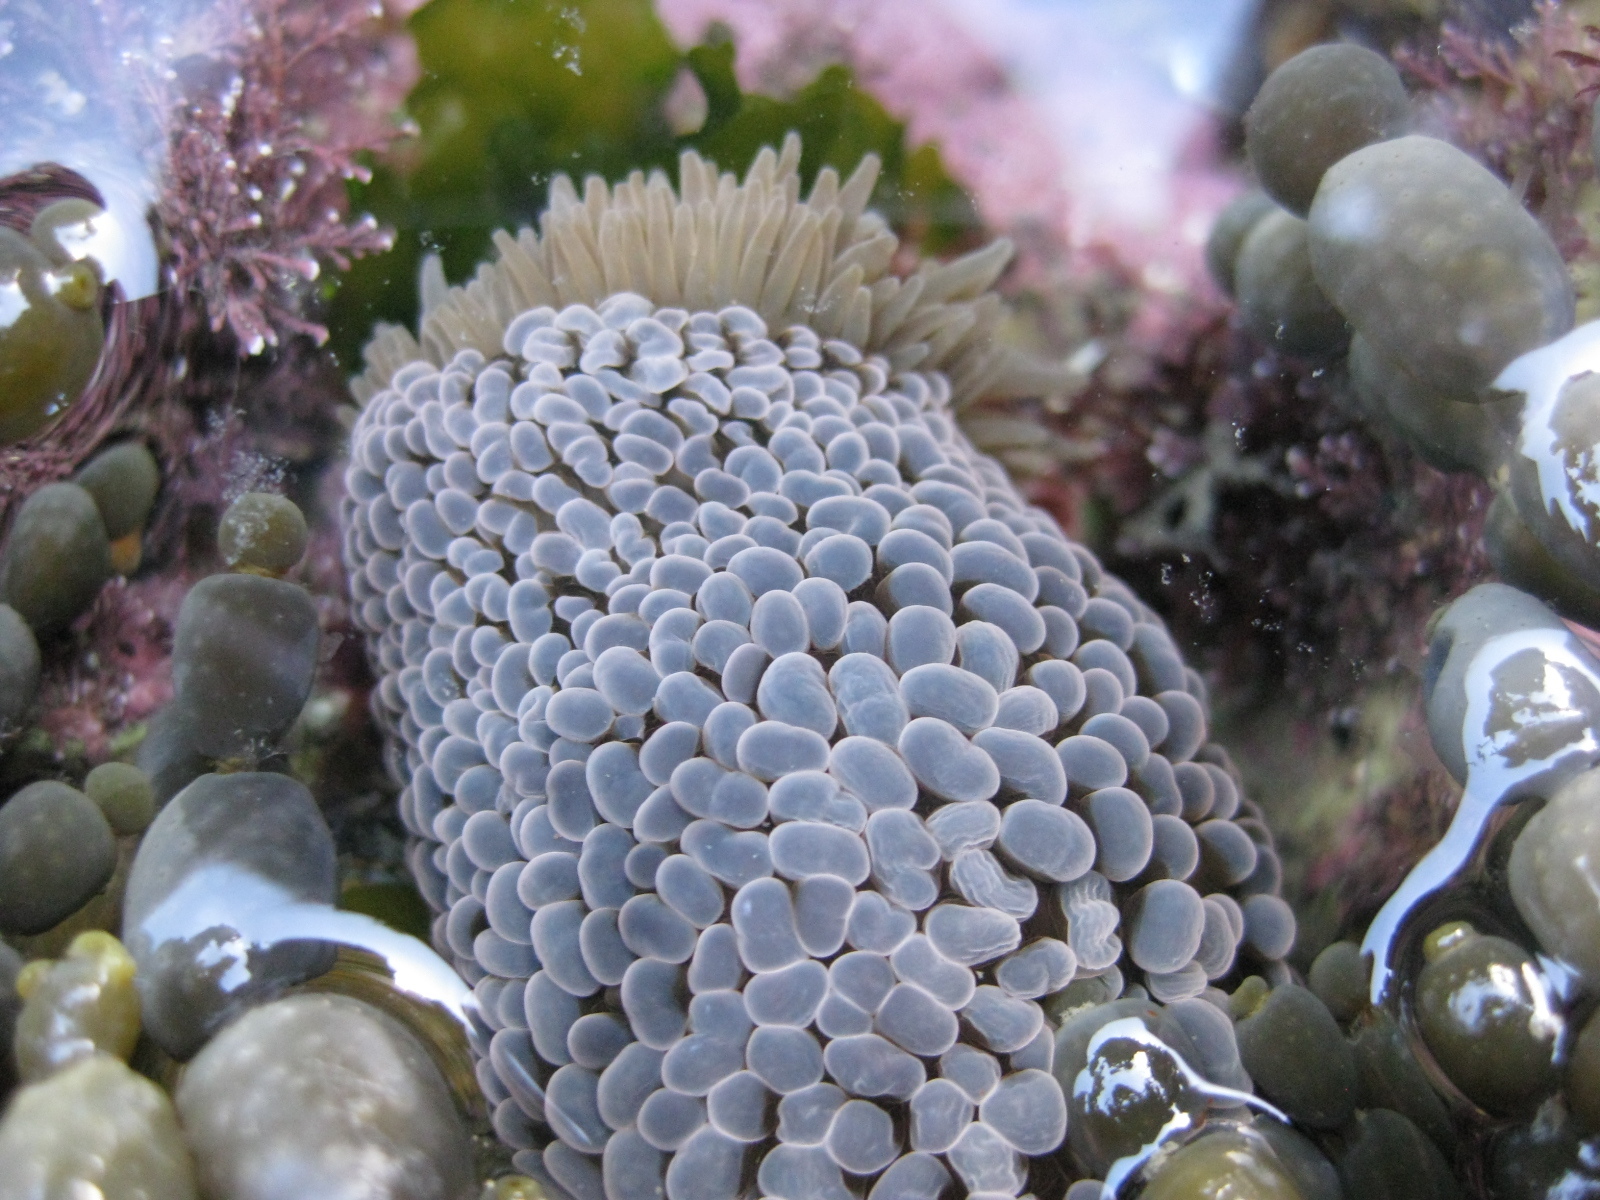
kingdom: Animalia
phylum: Cnidaria
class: Anthozoa
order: Actiniaria
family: Actiniidae
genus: Phlyctenactis
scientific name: Phlyctenactis tuberculosa
